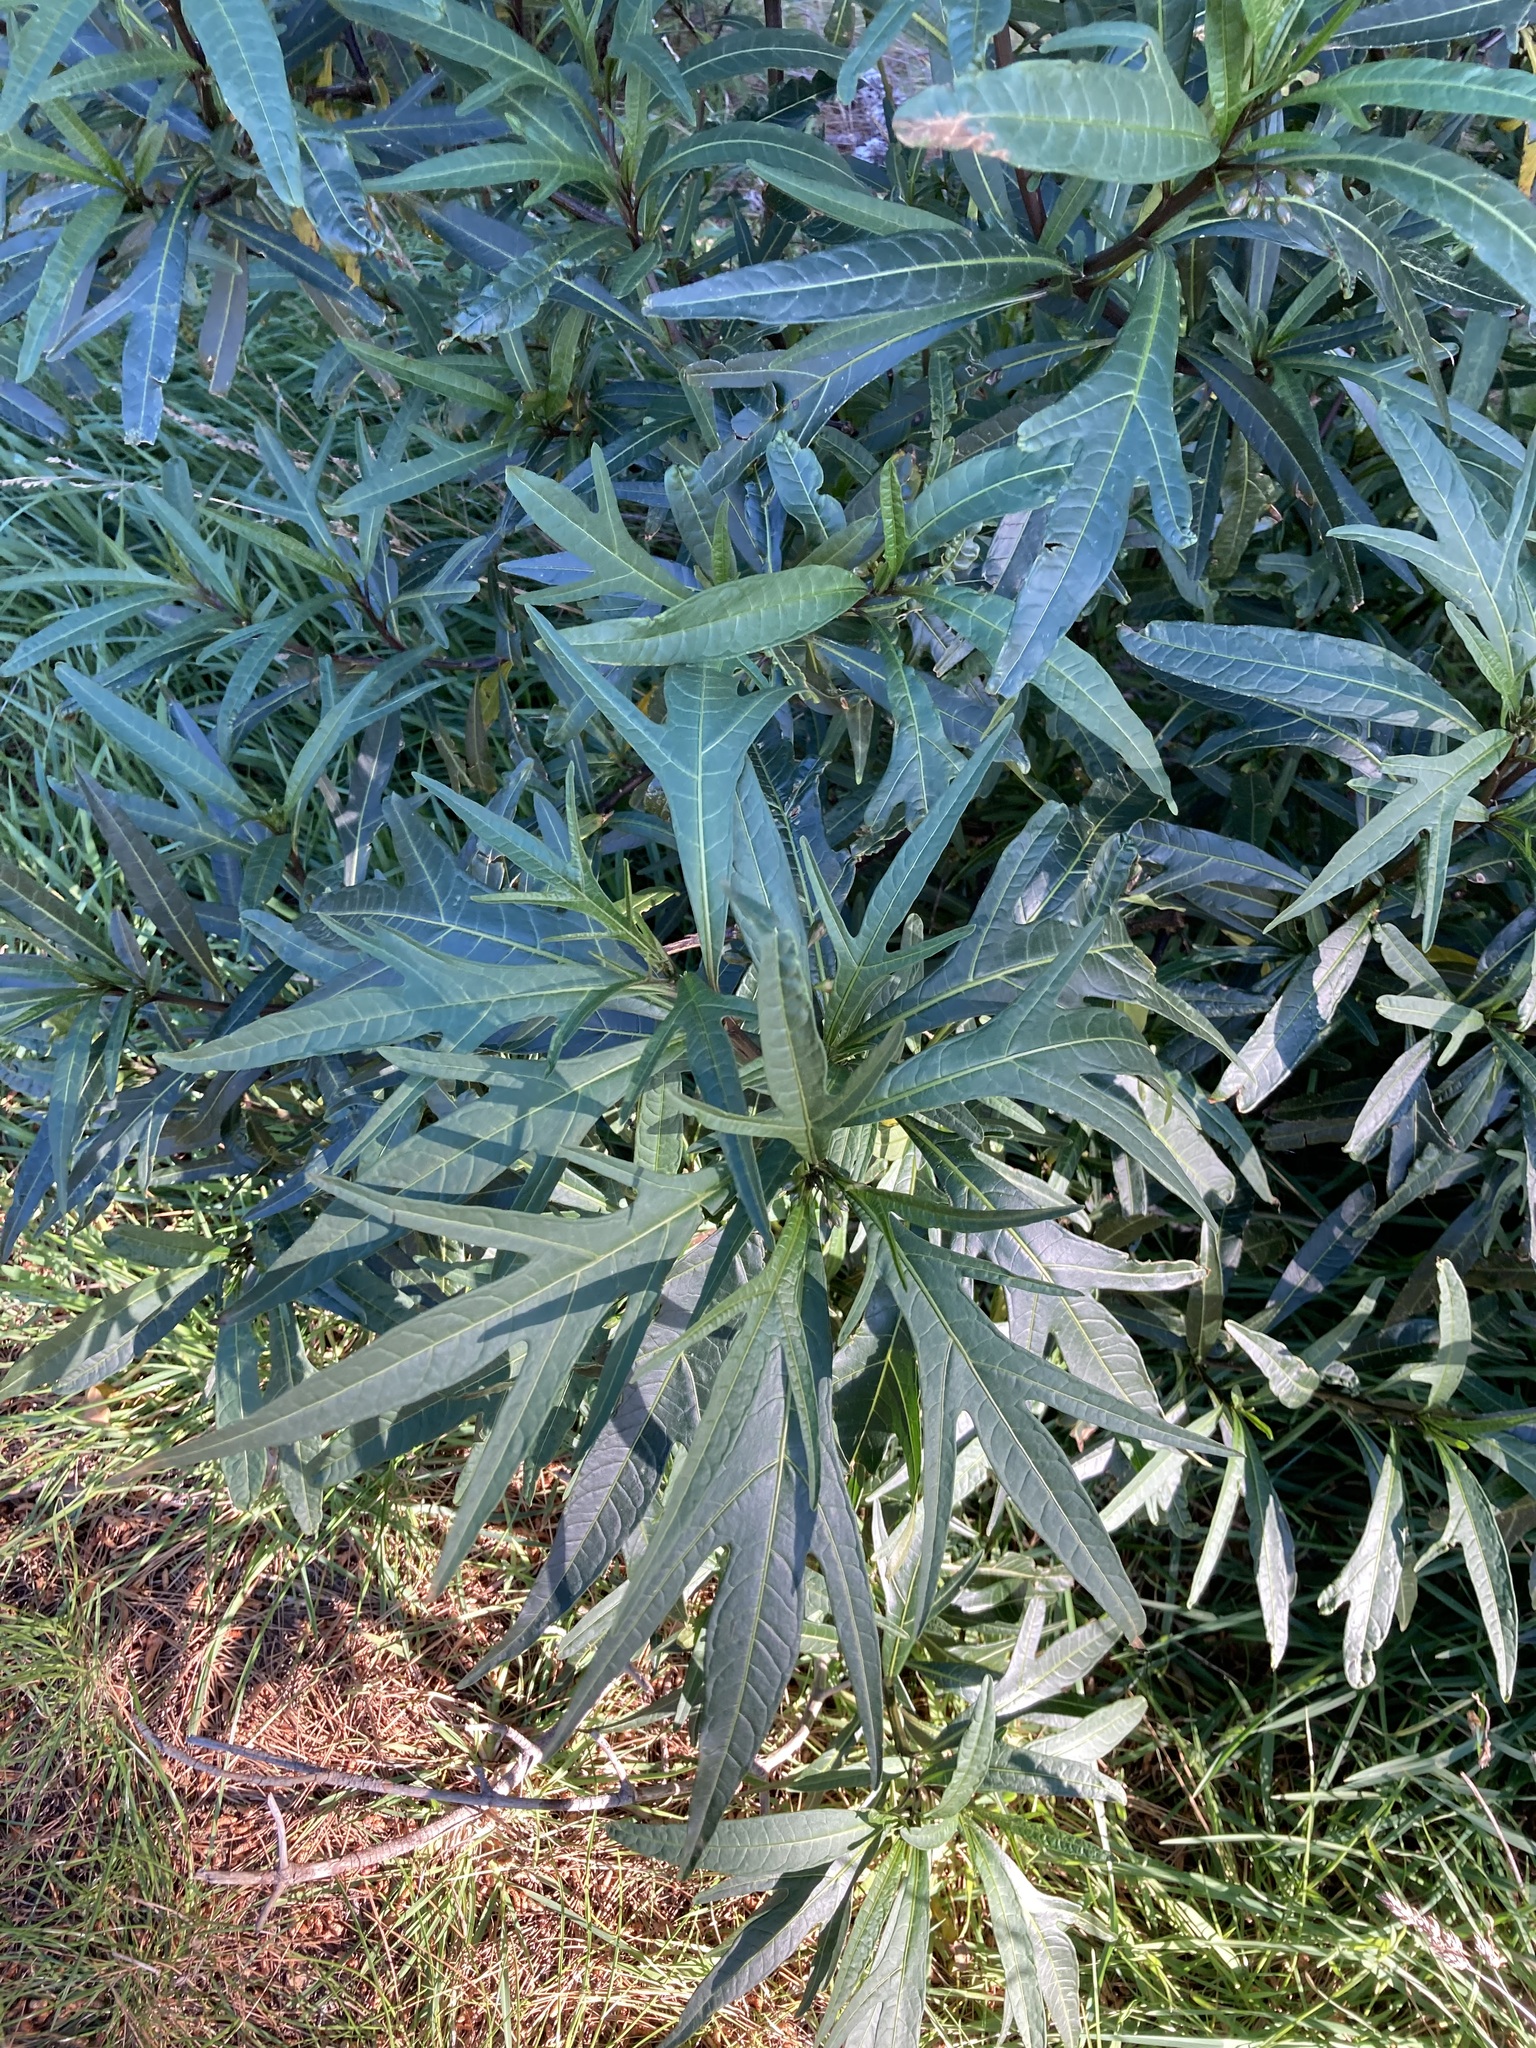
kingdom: Plantae
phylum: Tracheophyta
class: Magnoliopsida
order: Solanales
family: Solanaceae
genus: Solanum
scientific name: Solanum
